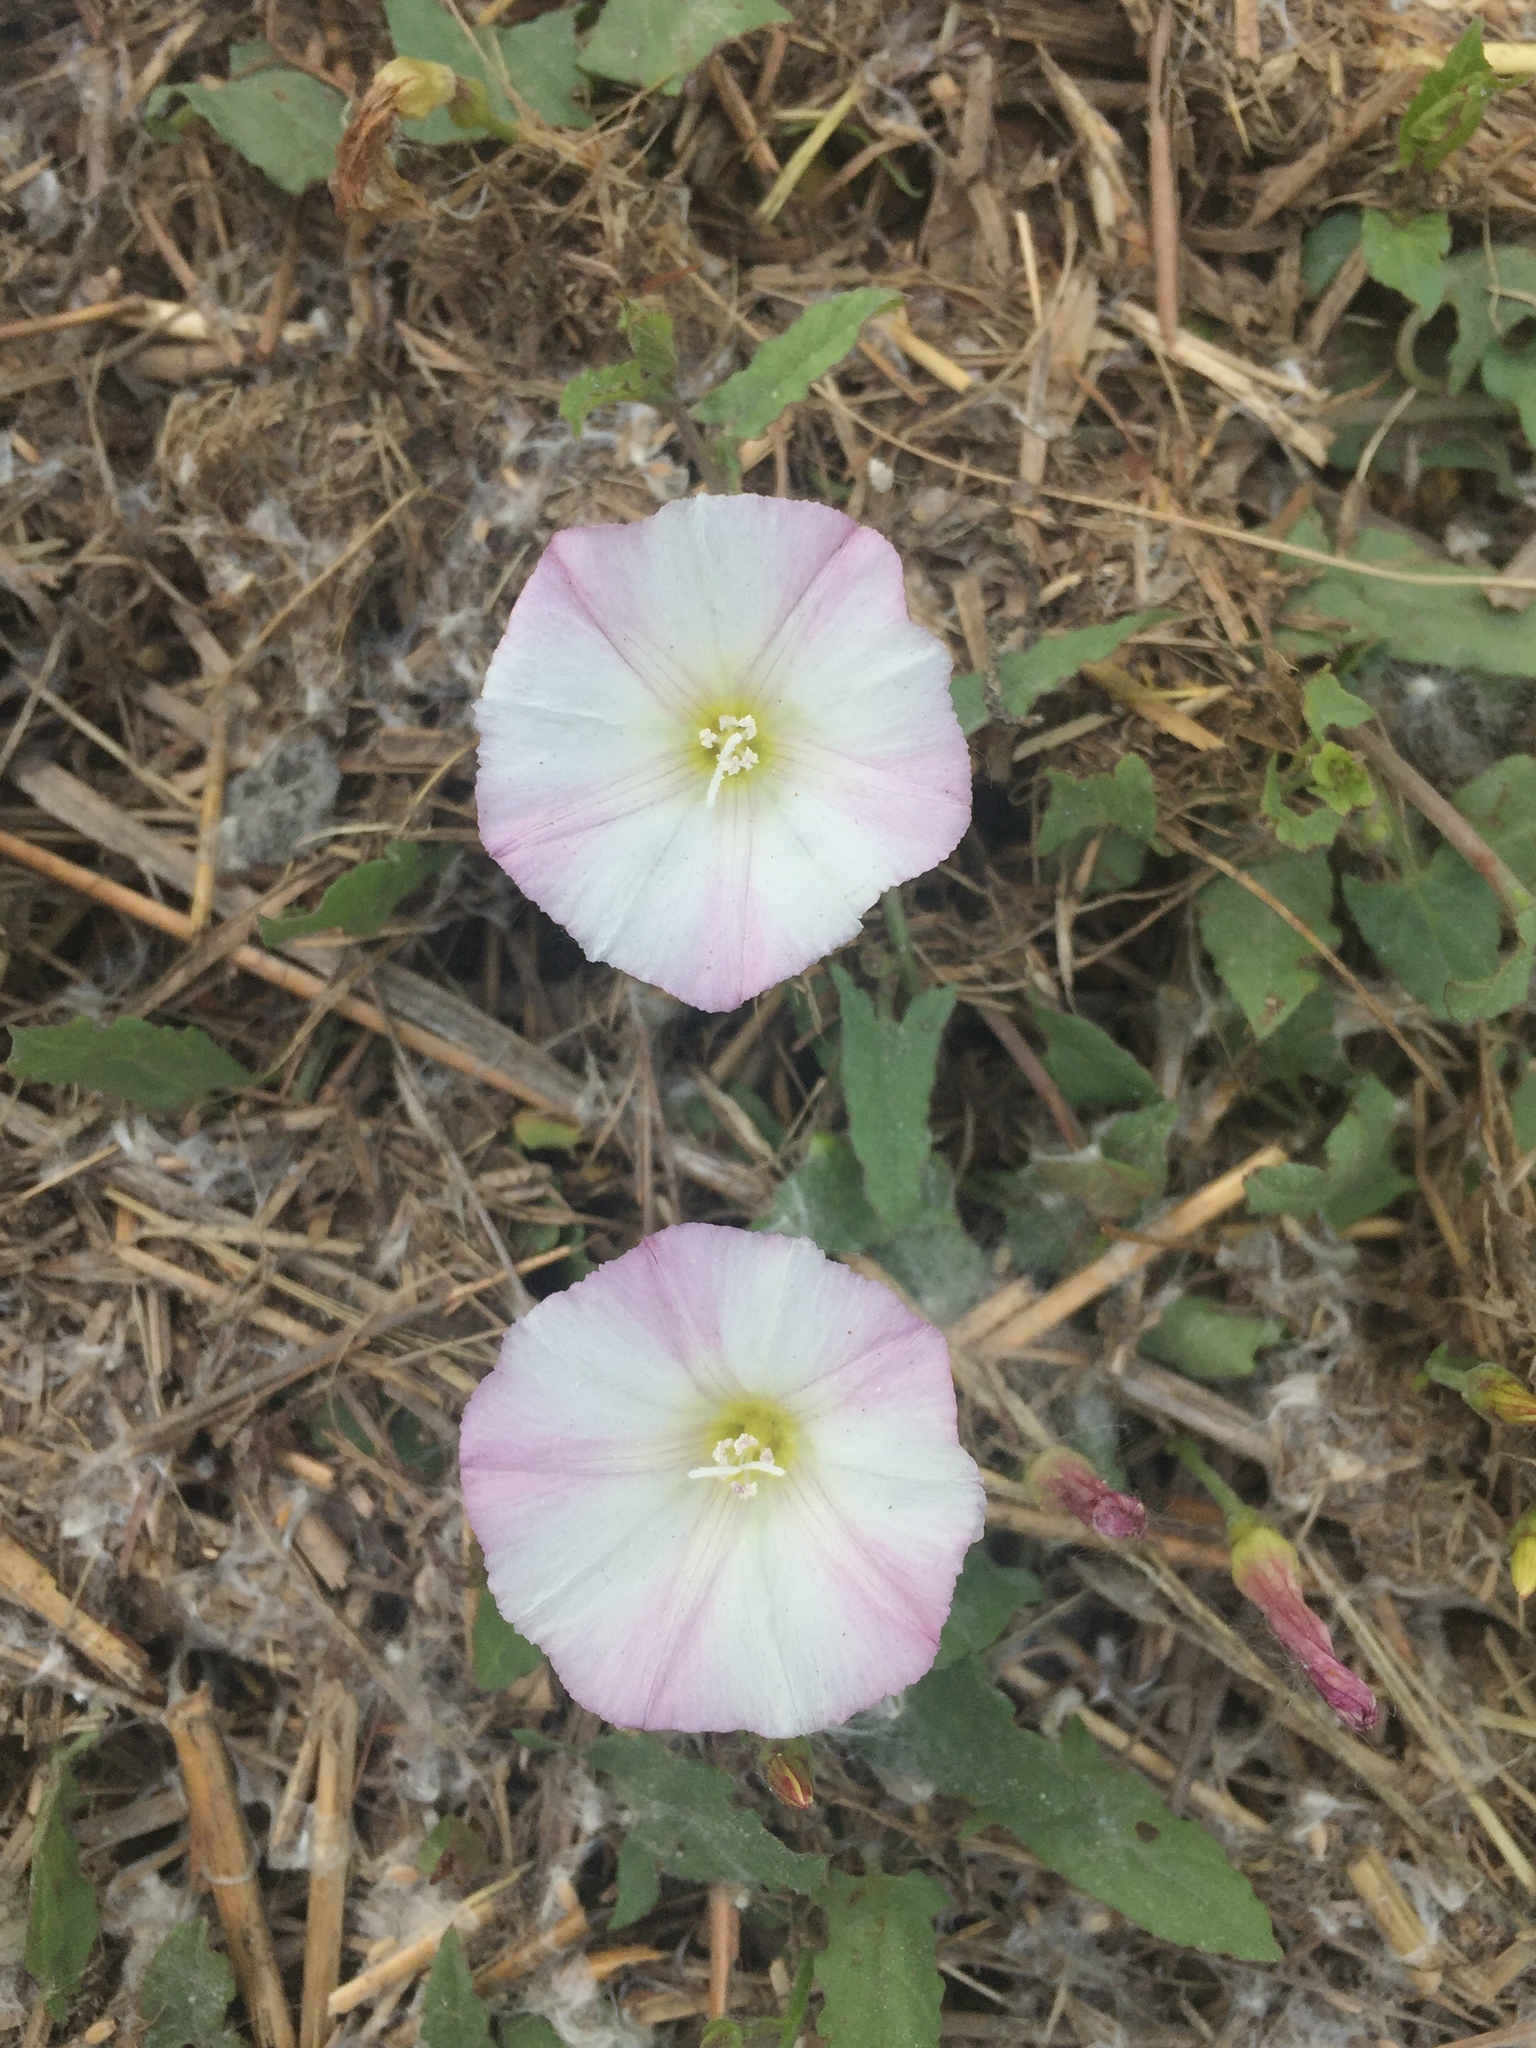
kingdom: Plantae
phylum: Tracheophyta
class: Magnoliopsida
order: Solanales
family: Convolvulaceae
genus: Convolvulus
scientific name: Convolvulus arvensis
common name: Field bindweed
